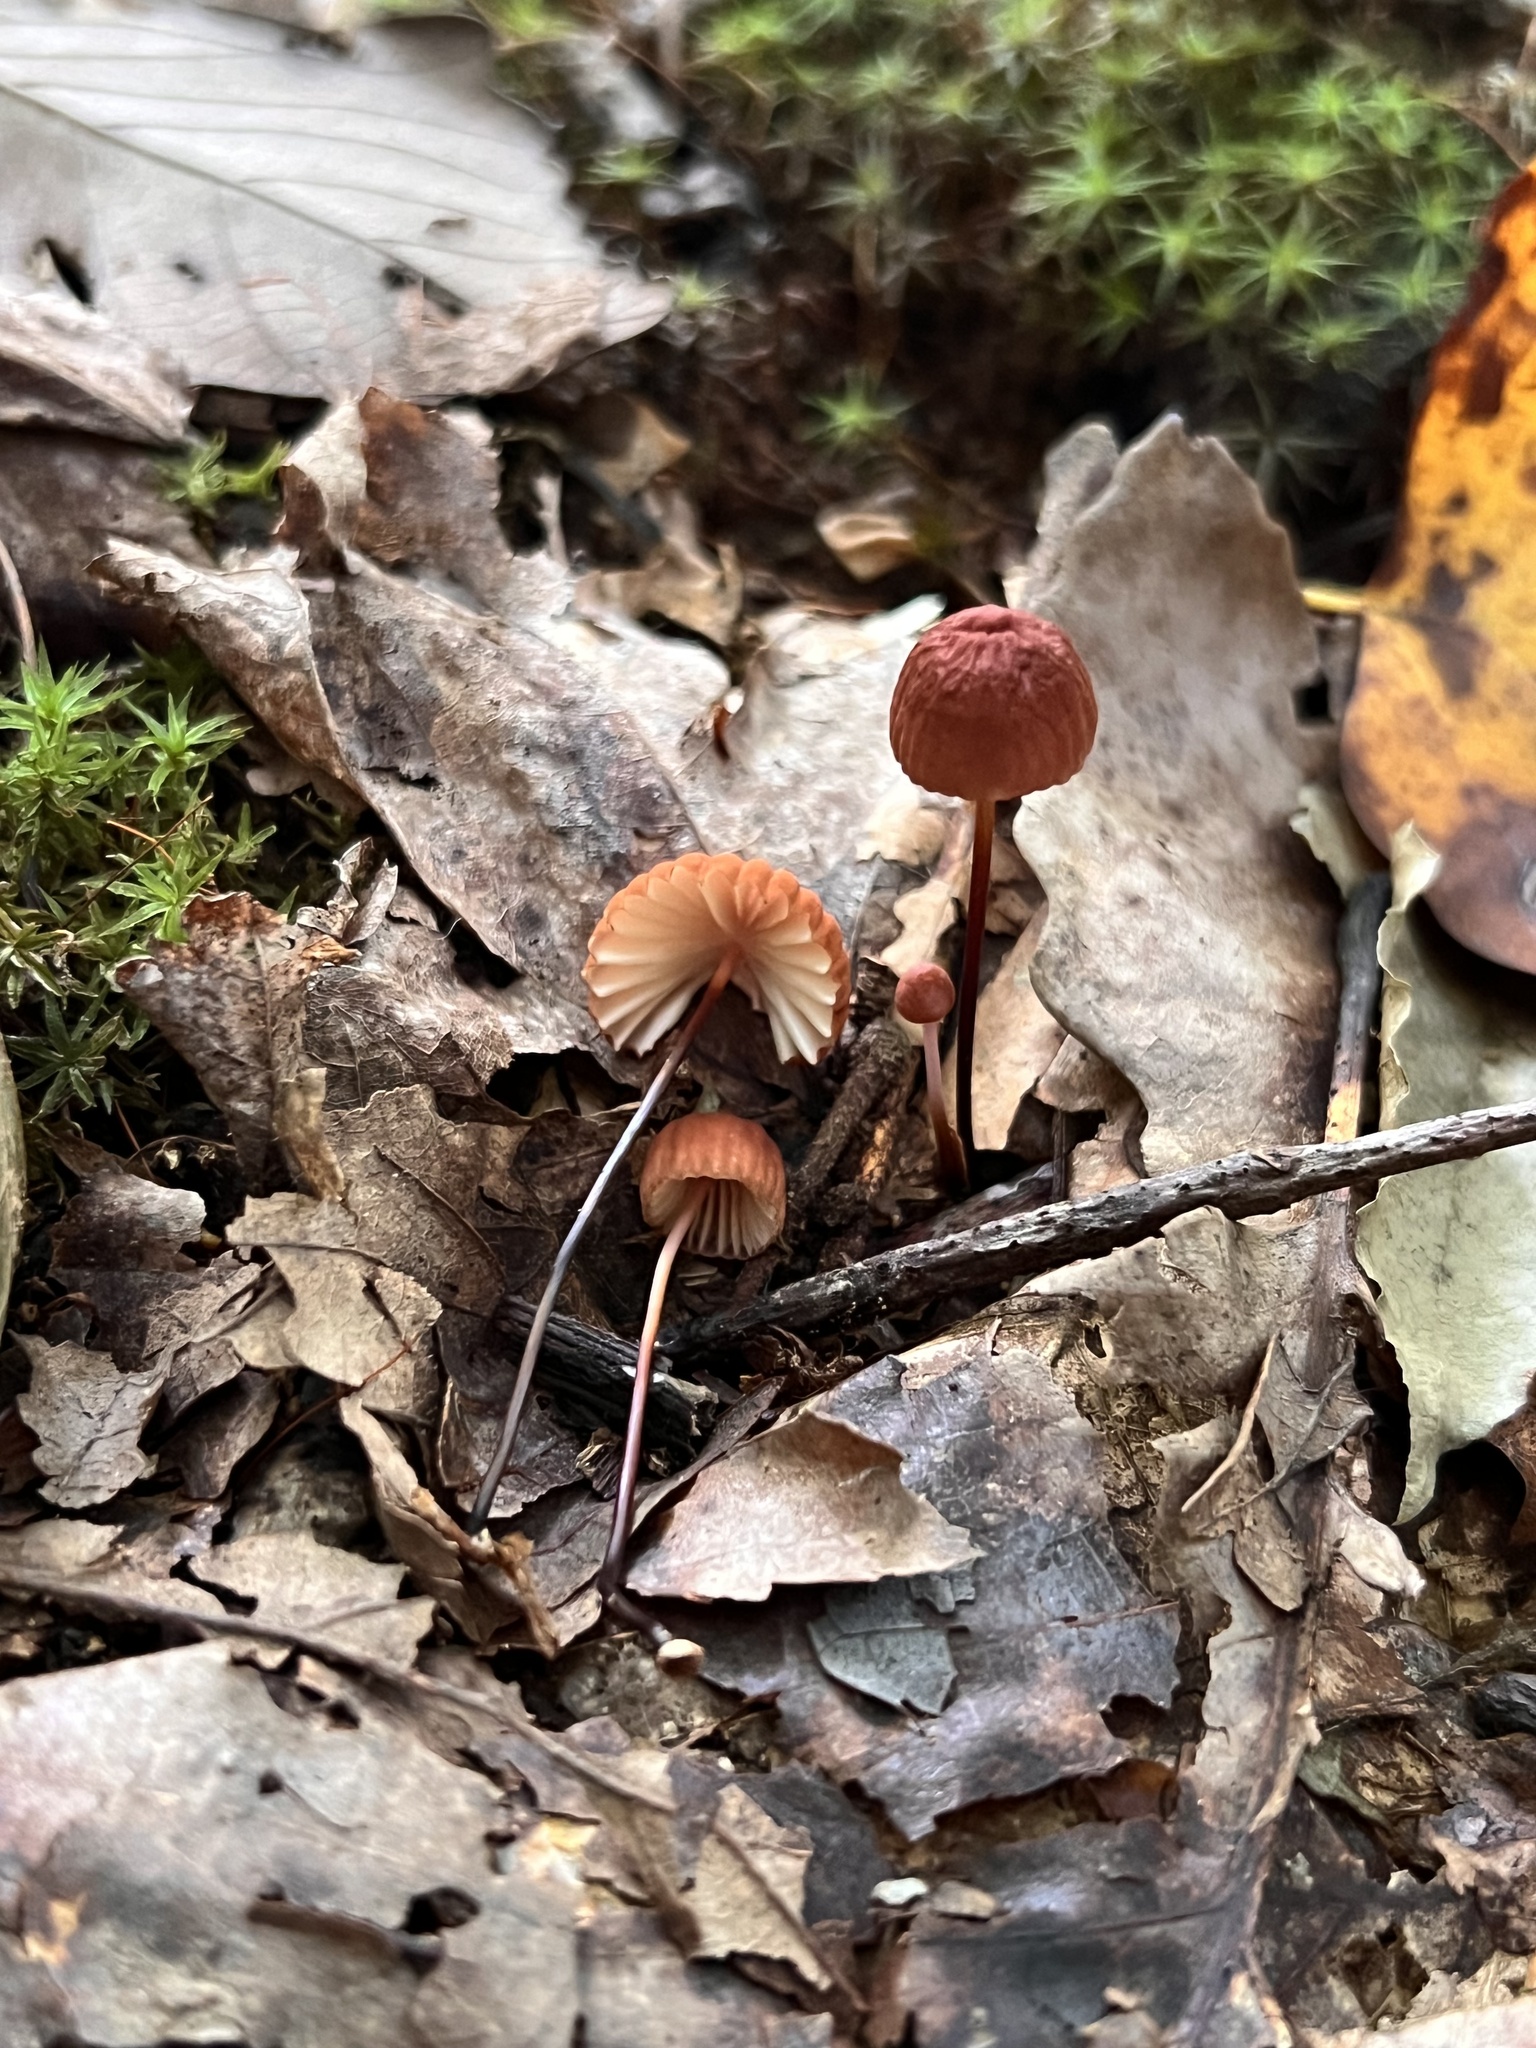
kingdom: Fungi
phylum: Basidiomycota
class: Agaricomycetes
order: Agaricales
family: Marasmiaceae
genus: Marasmius
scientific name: Marasmius fulvoferrugineus
